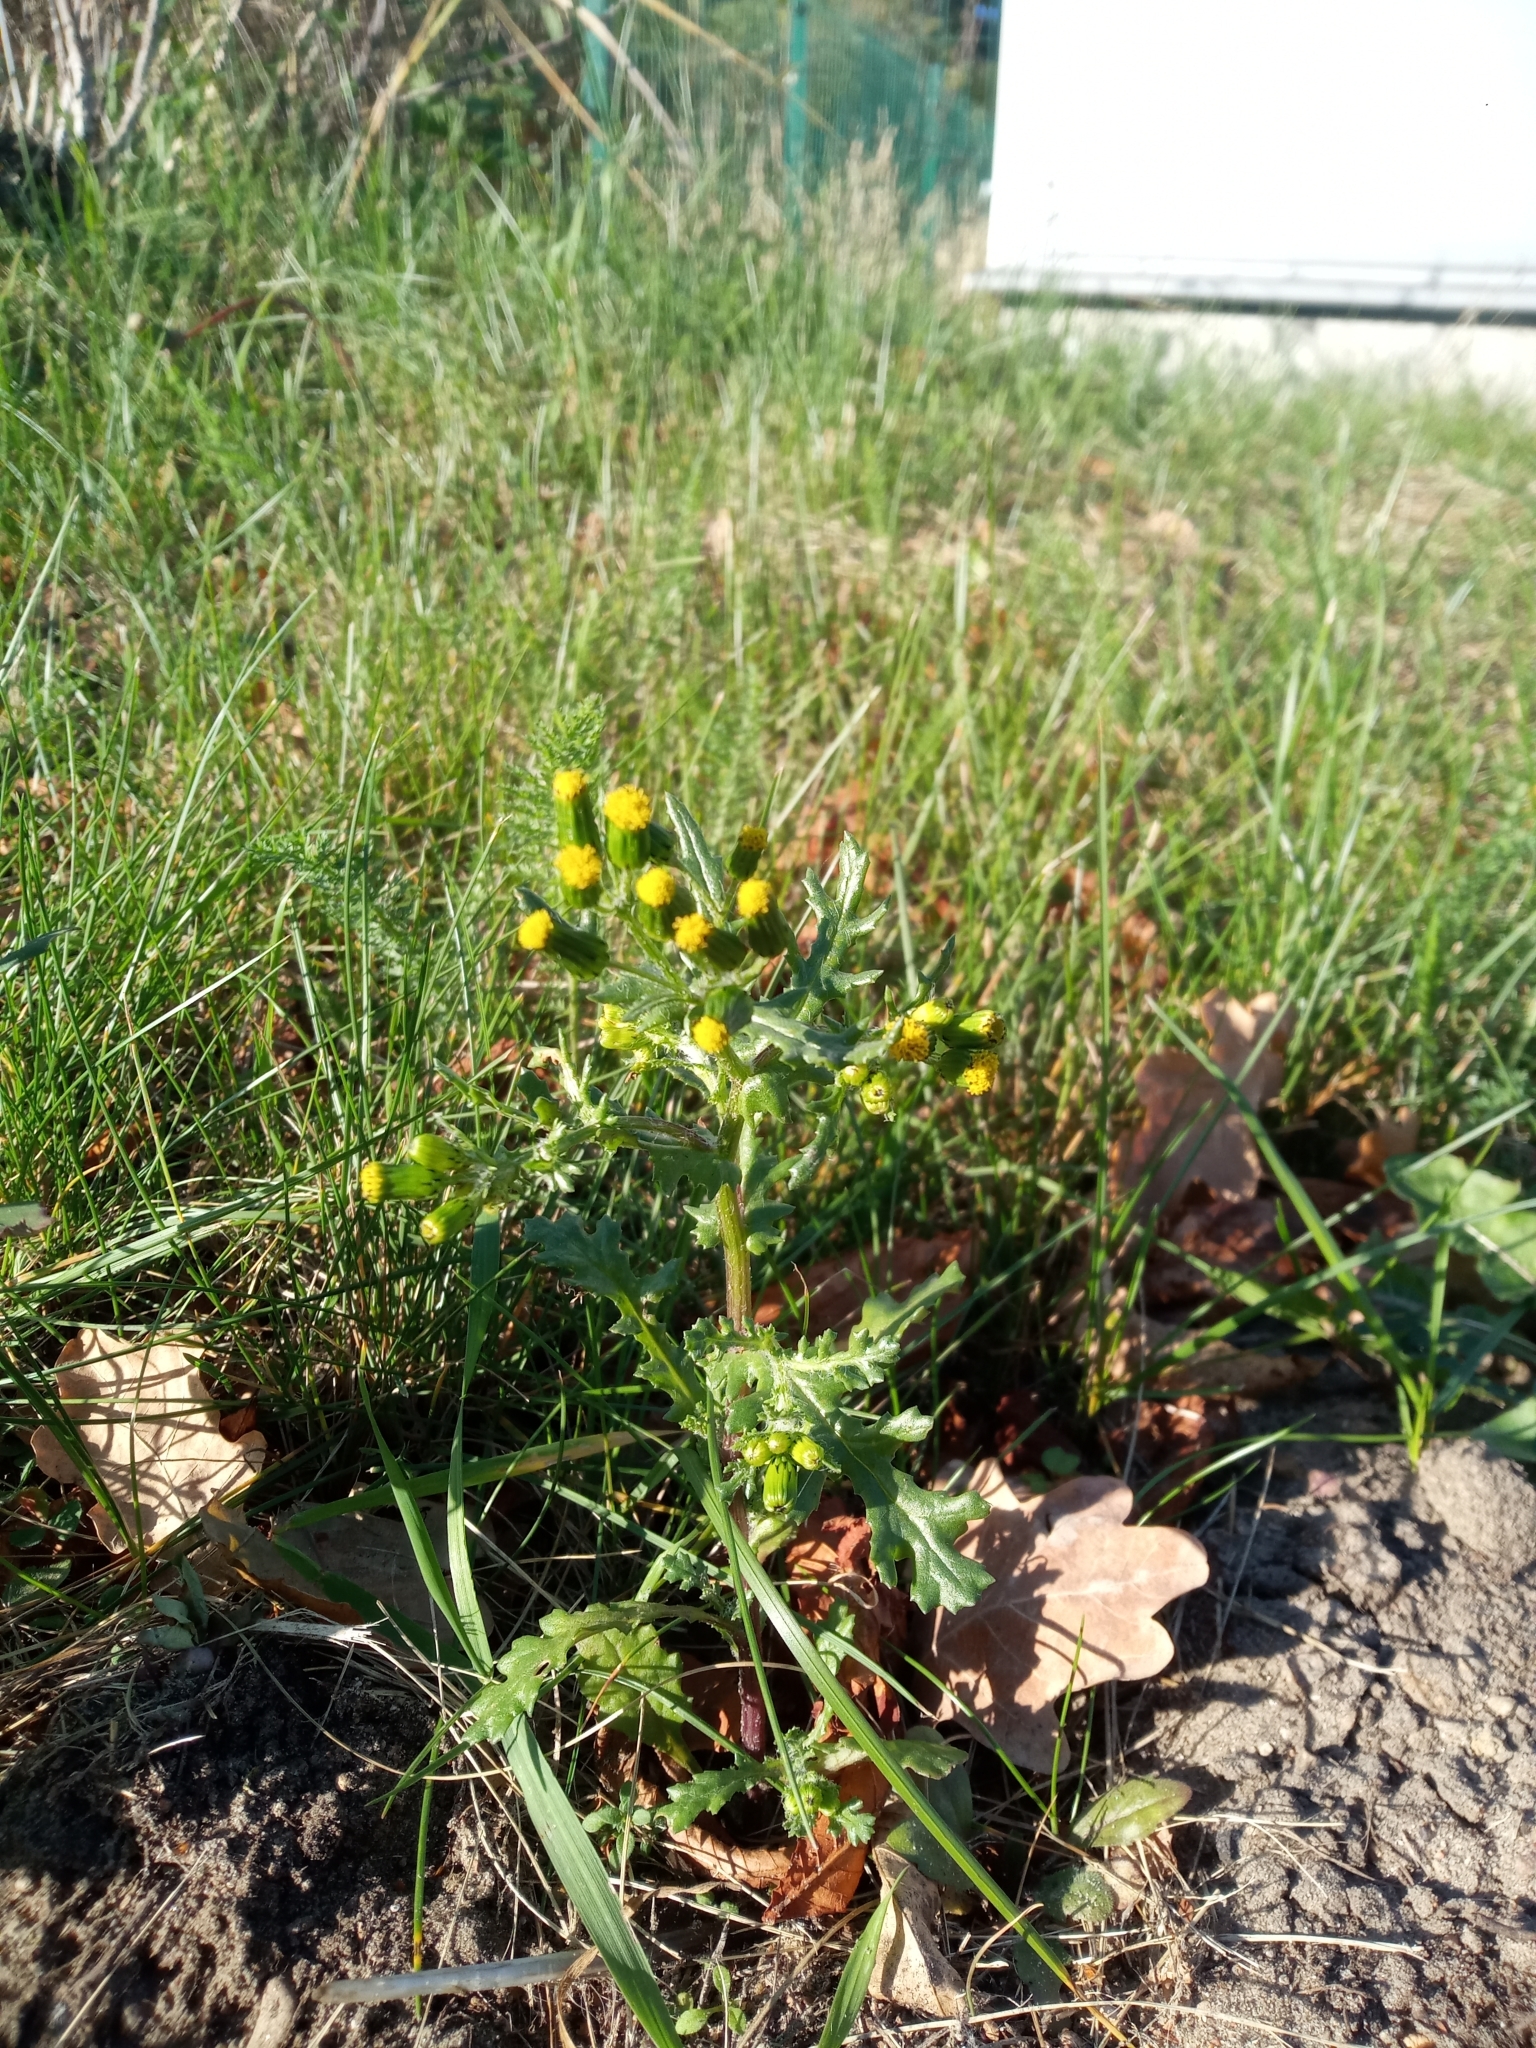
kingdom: Plantae
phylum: Tracheophyta
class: Magnoliopsida
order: Asterales
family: Asteraceae
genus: Senecio
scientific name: Senecio vulgaris
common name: Old-man-in-the-spring
